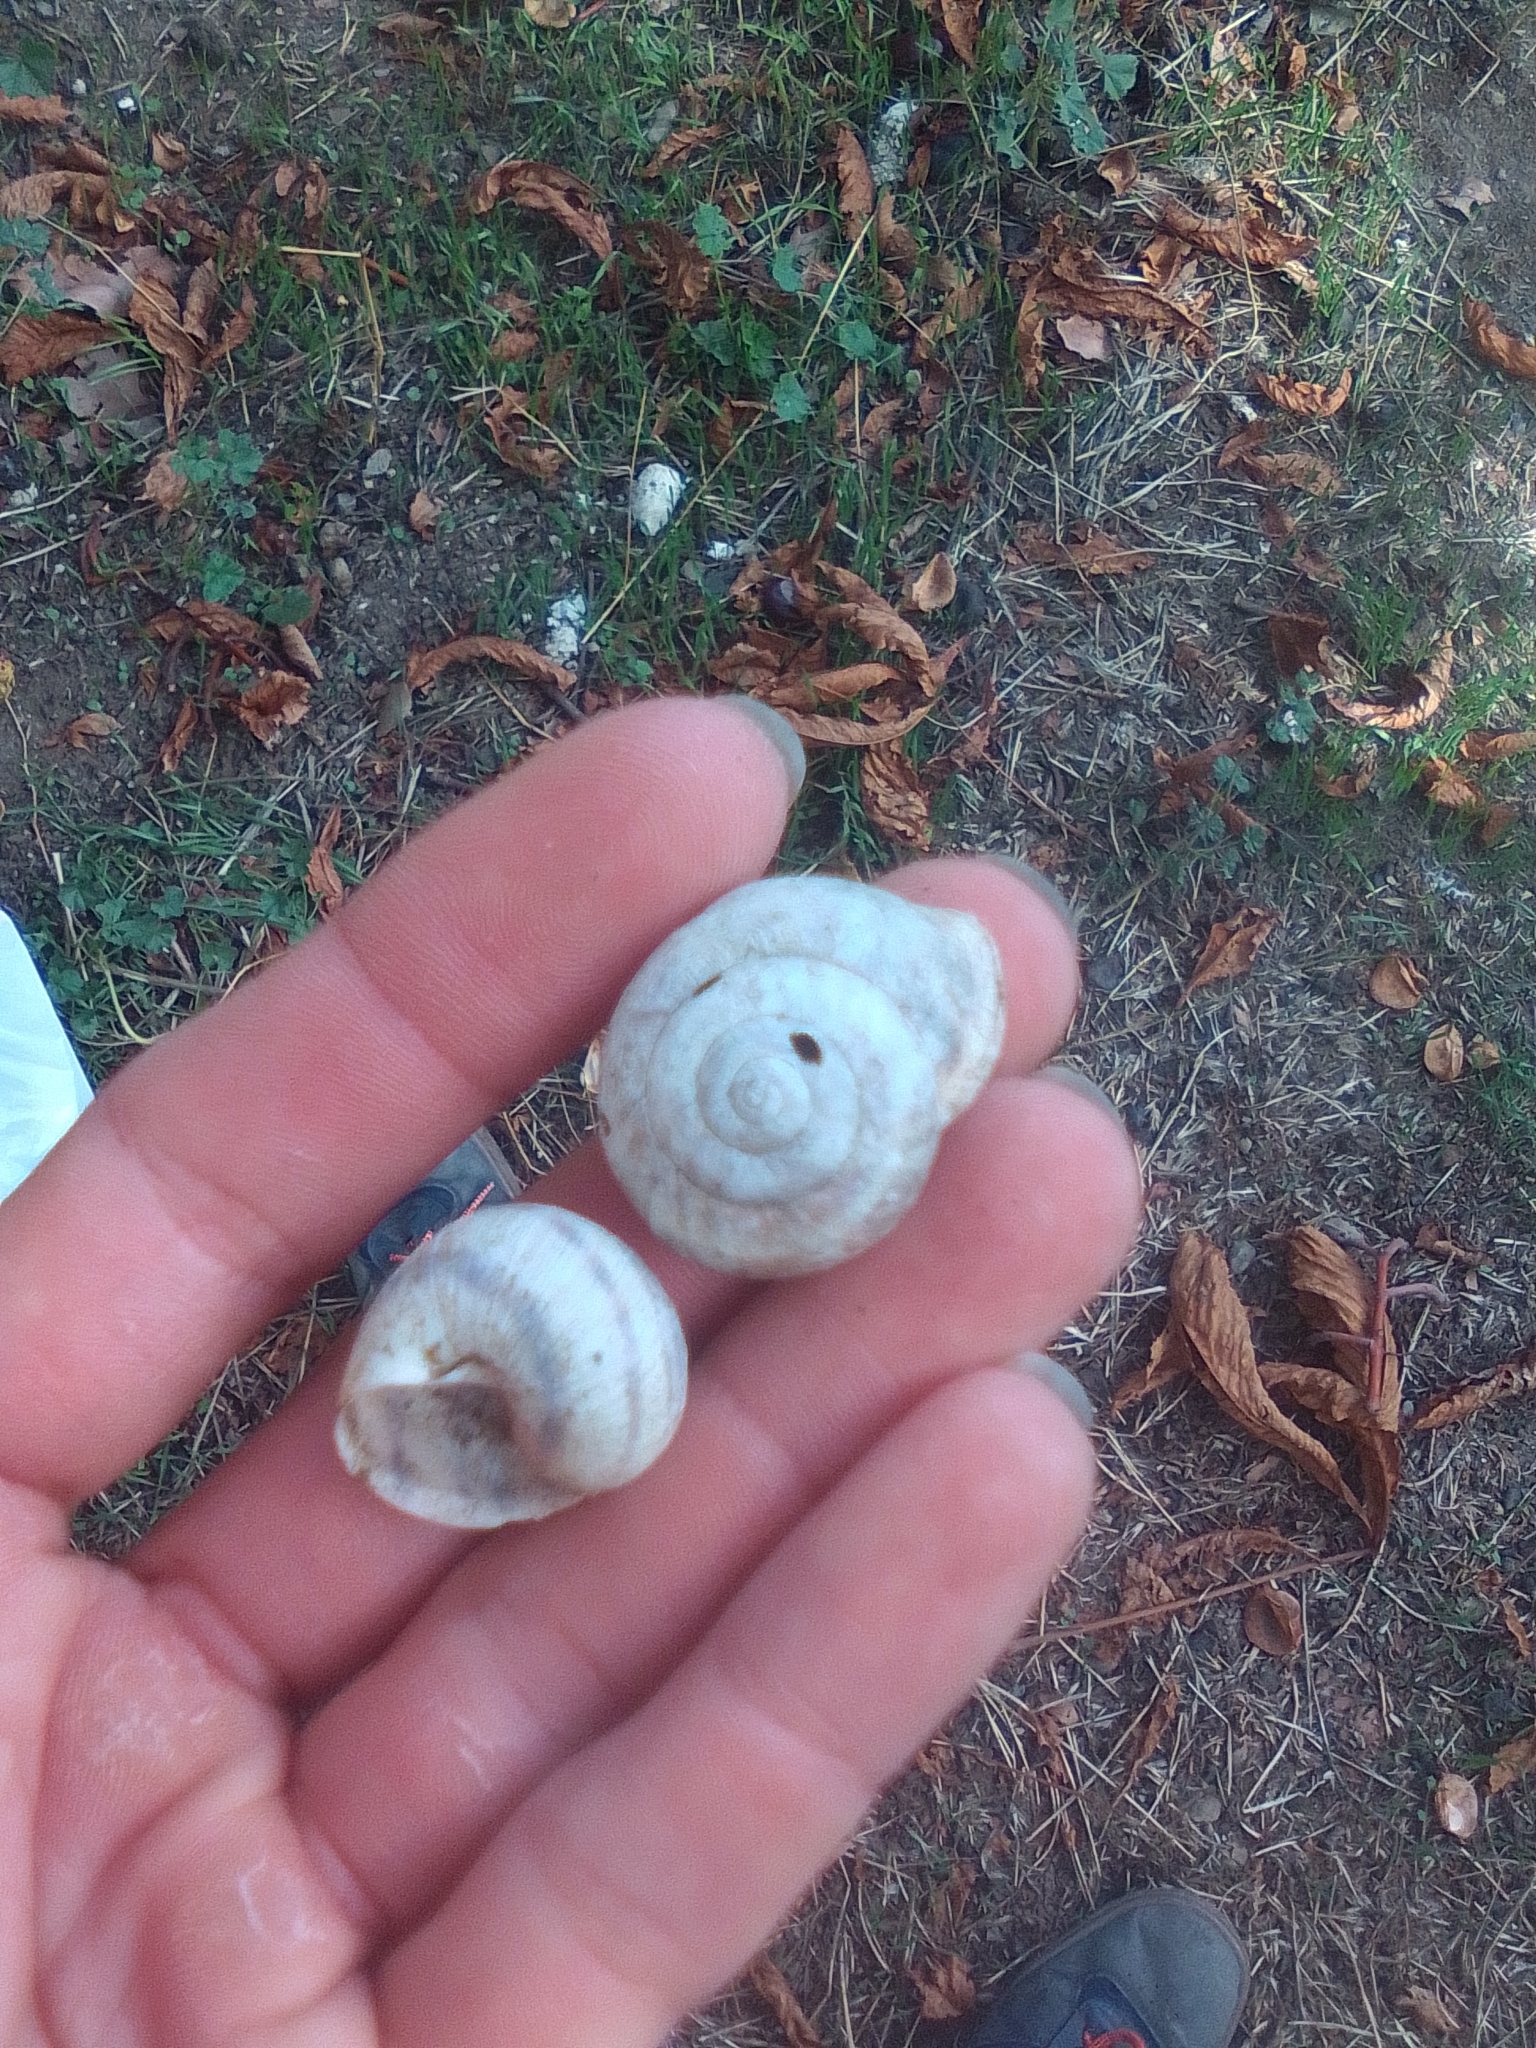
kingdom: Animalia
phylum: Mollusca
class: Gastropoda
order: Stylommatophora
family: Helicidae
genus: Helix
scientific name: Helix albescens
